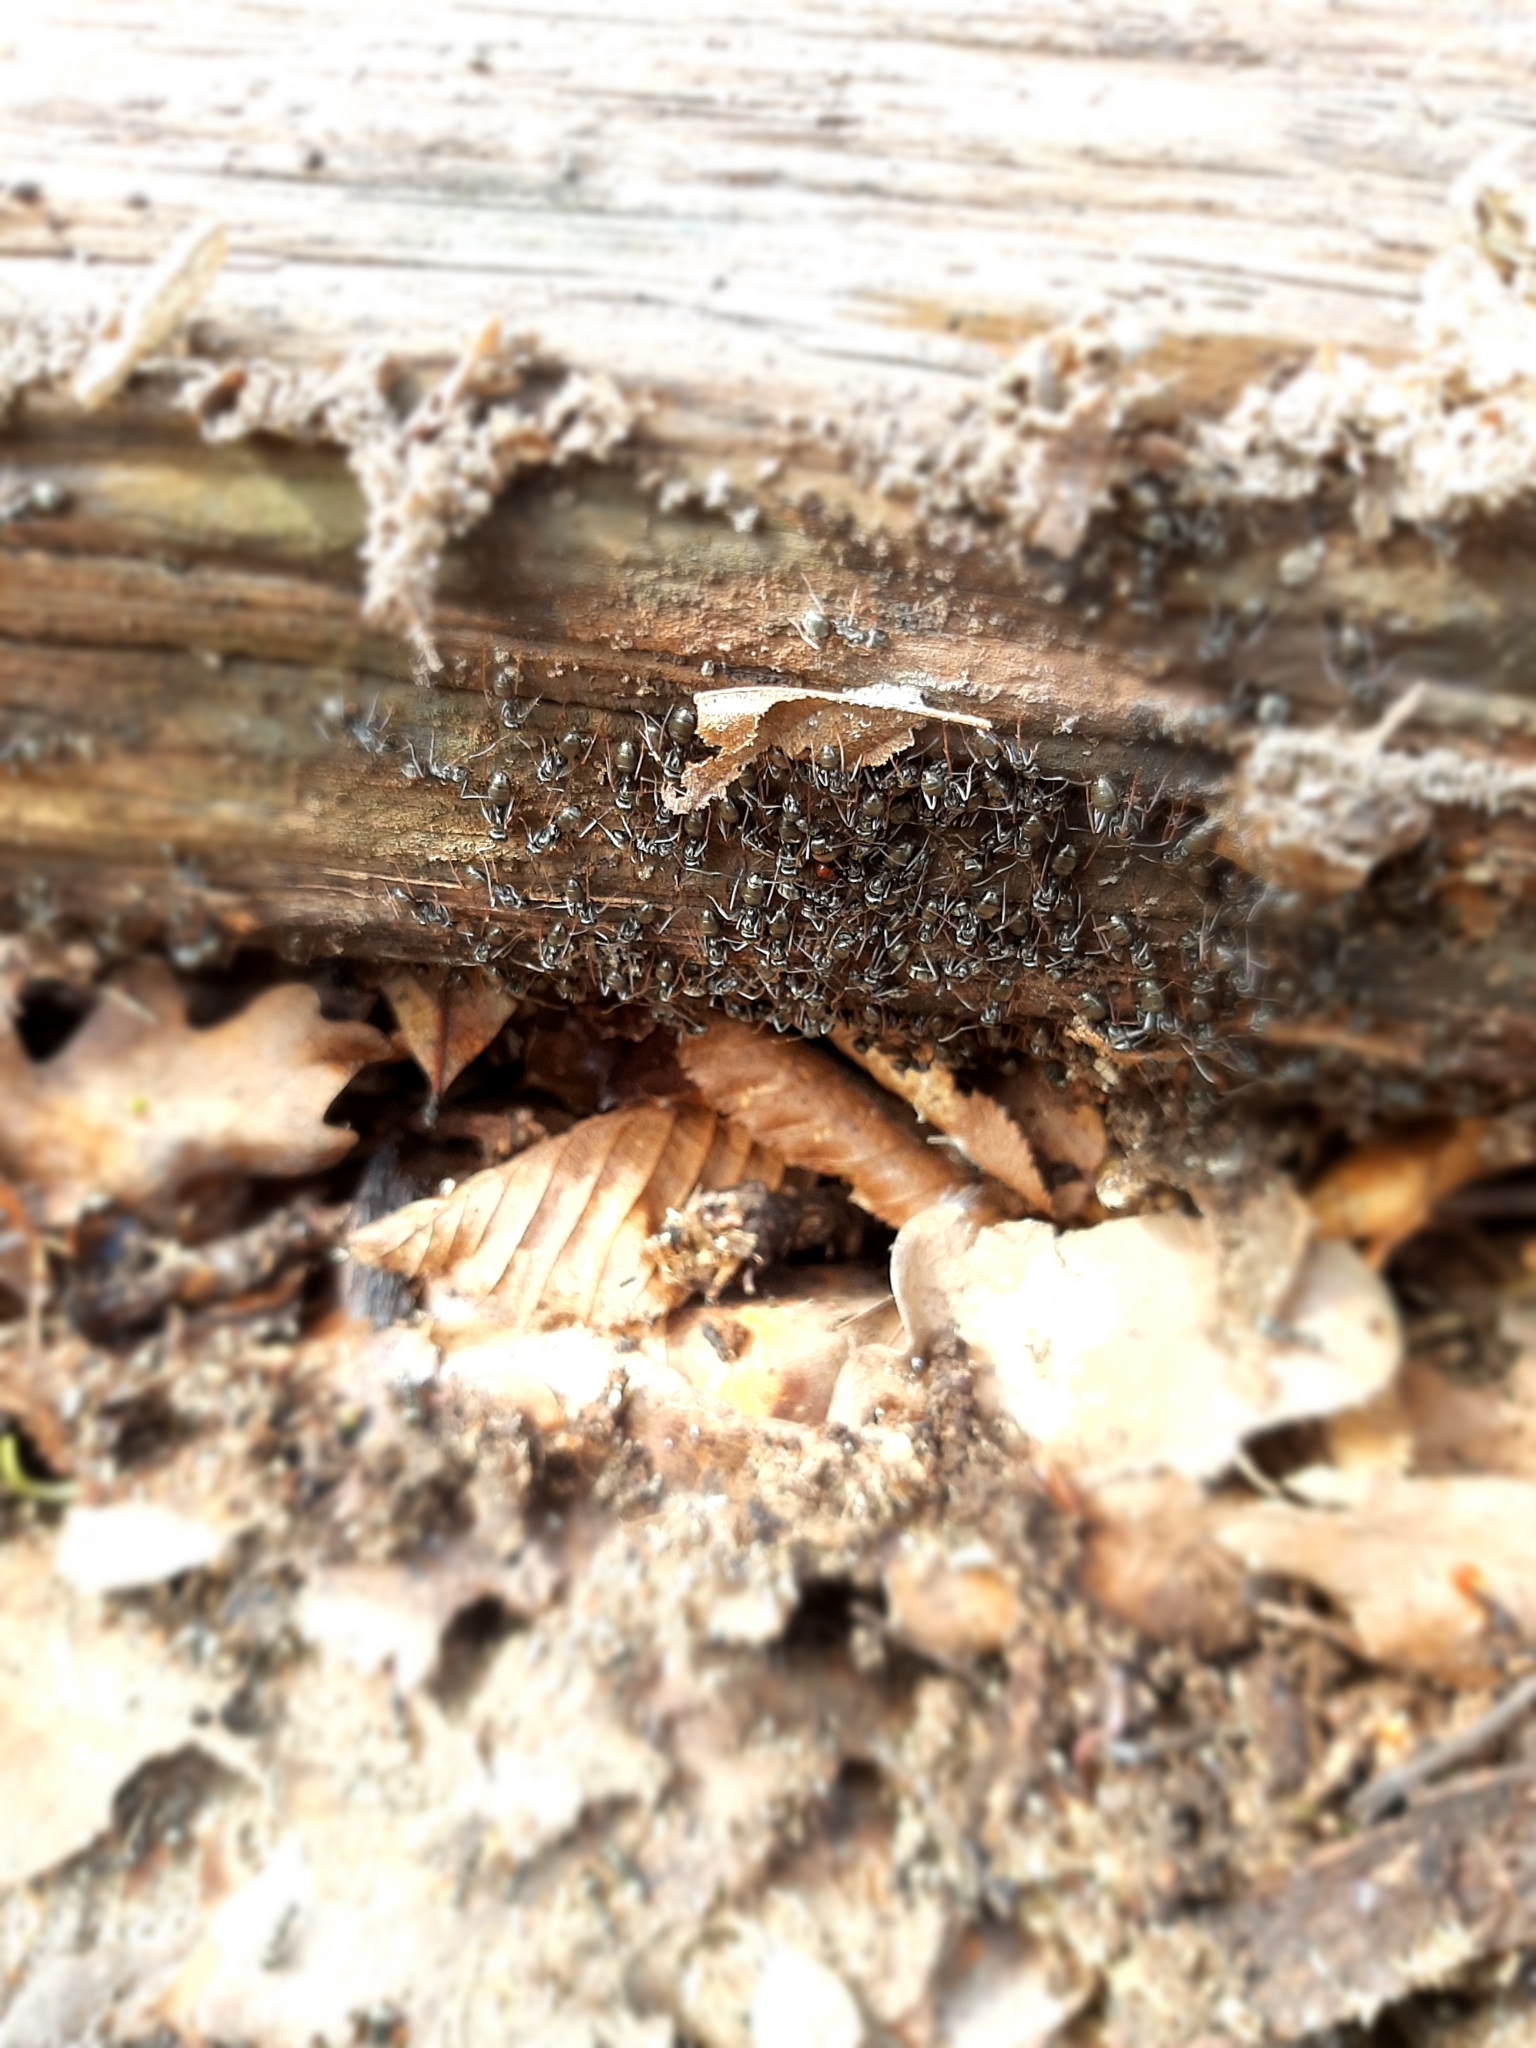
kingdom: Animalia
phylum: Arthropoda
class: Insecta
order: Hymenoptera
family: Formicidae
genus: Formica
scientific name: Formica
